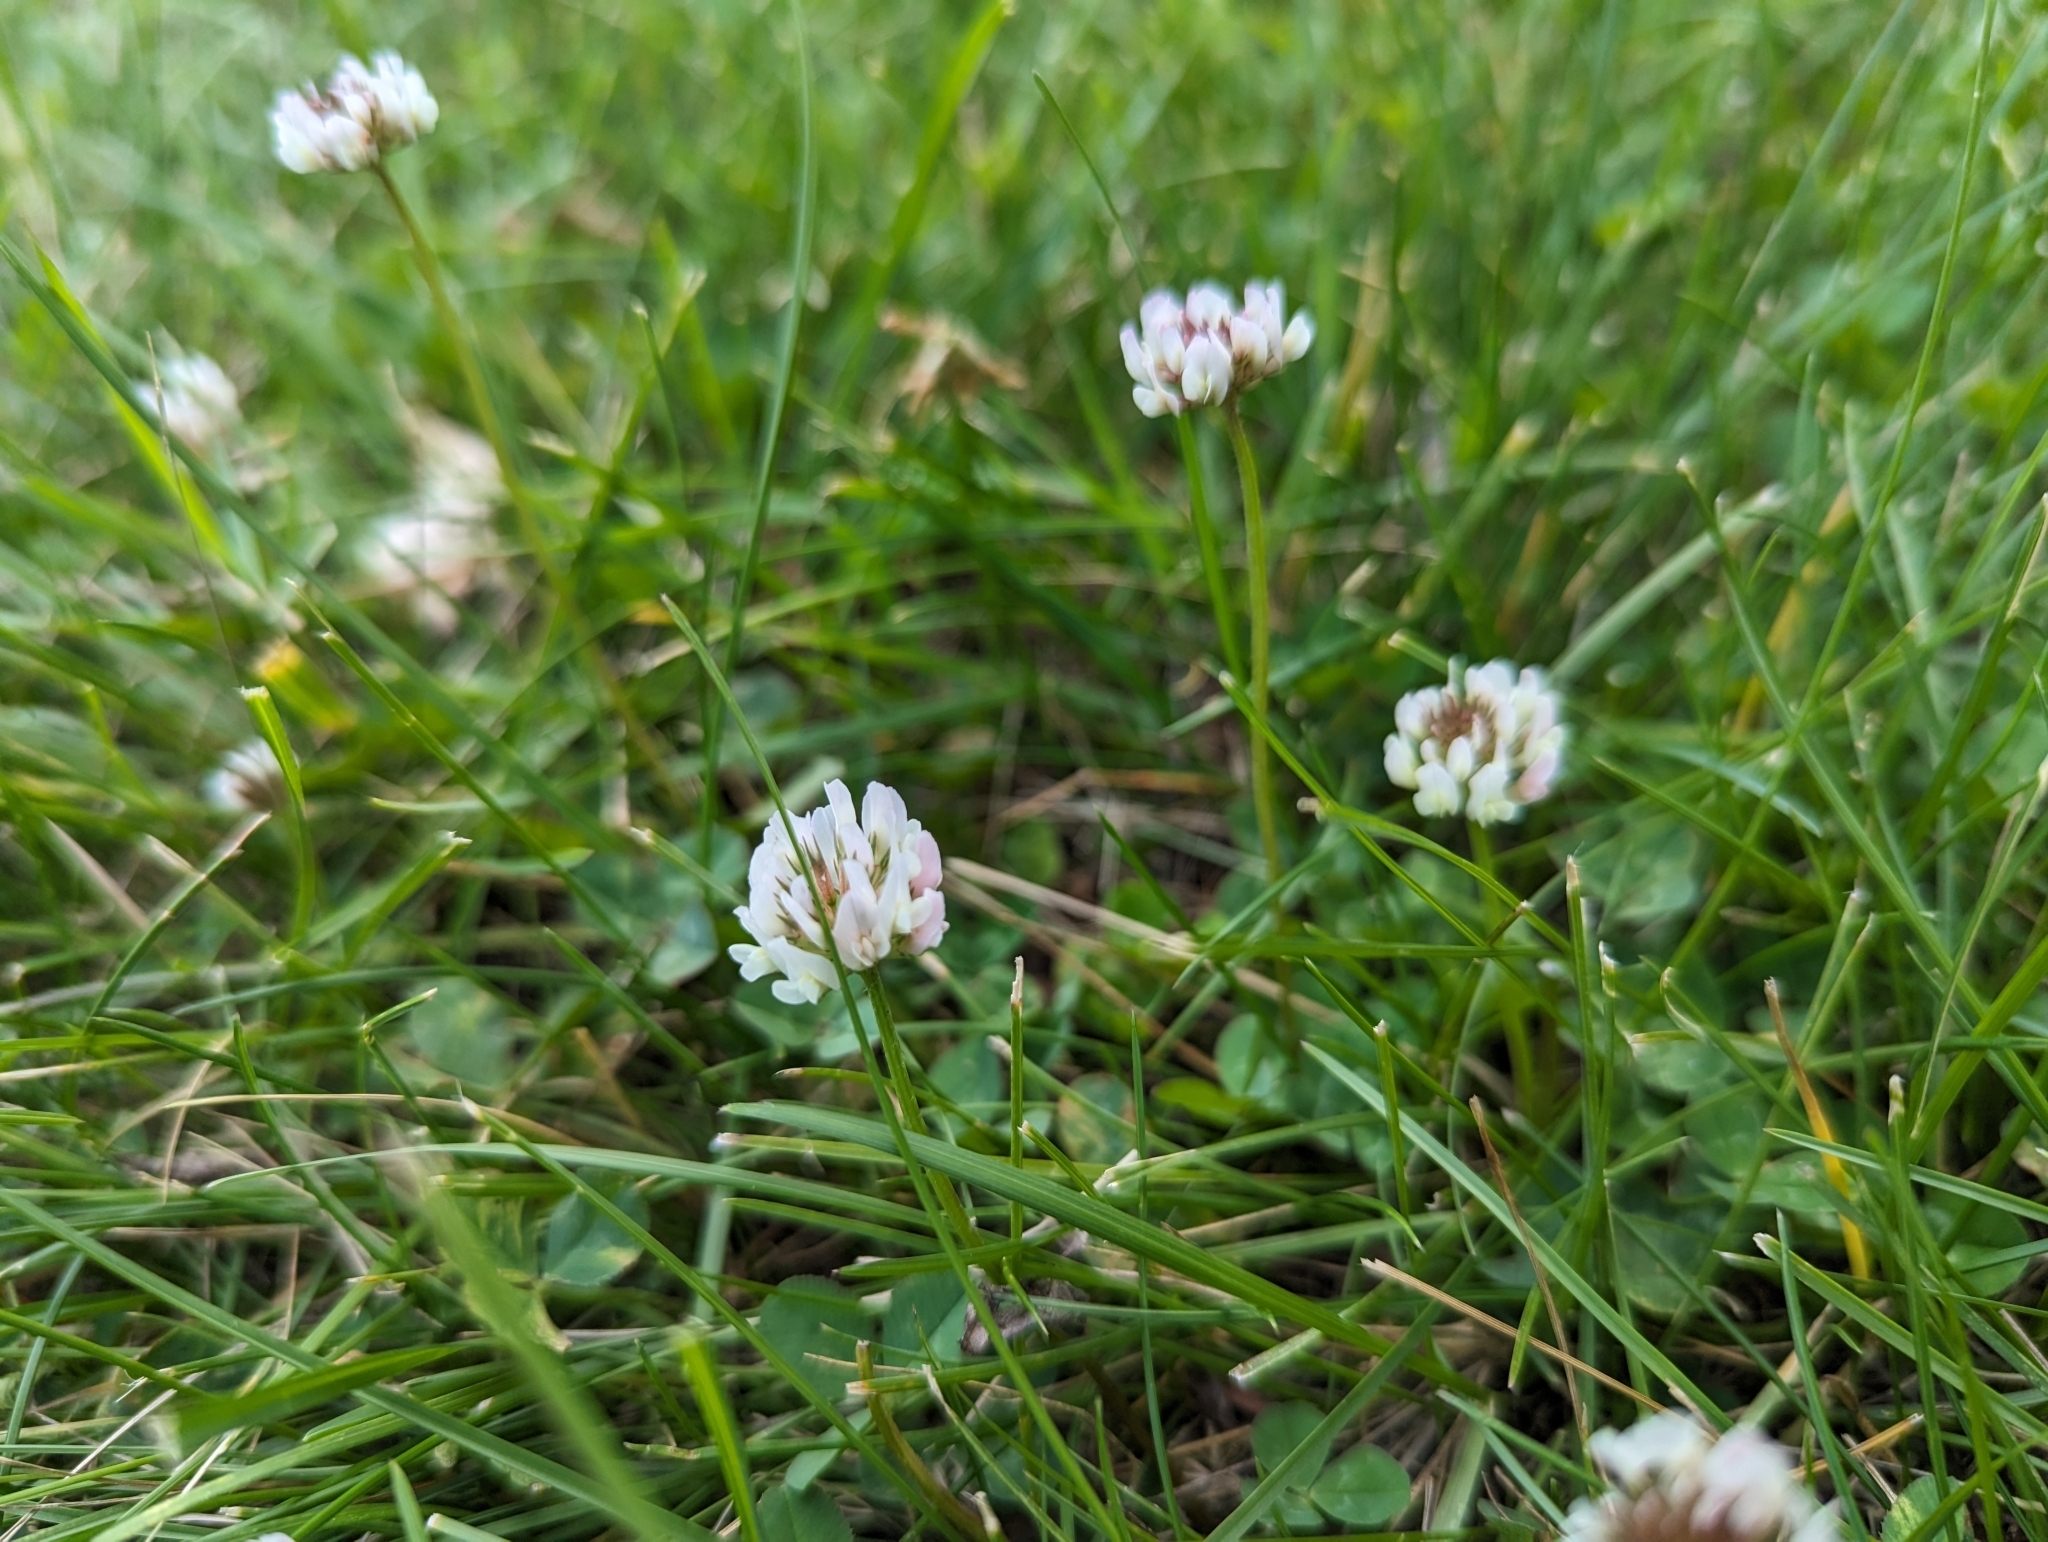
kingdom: Plantae
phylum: Tracheophyta
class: Magnoliopsida
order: Fabales
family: Fabaceae
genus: Trifolium
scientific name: Trifolium repens
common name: White clover
